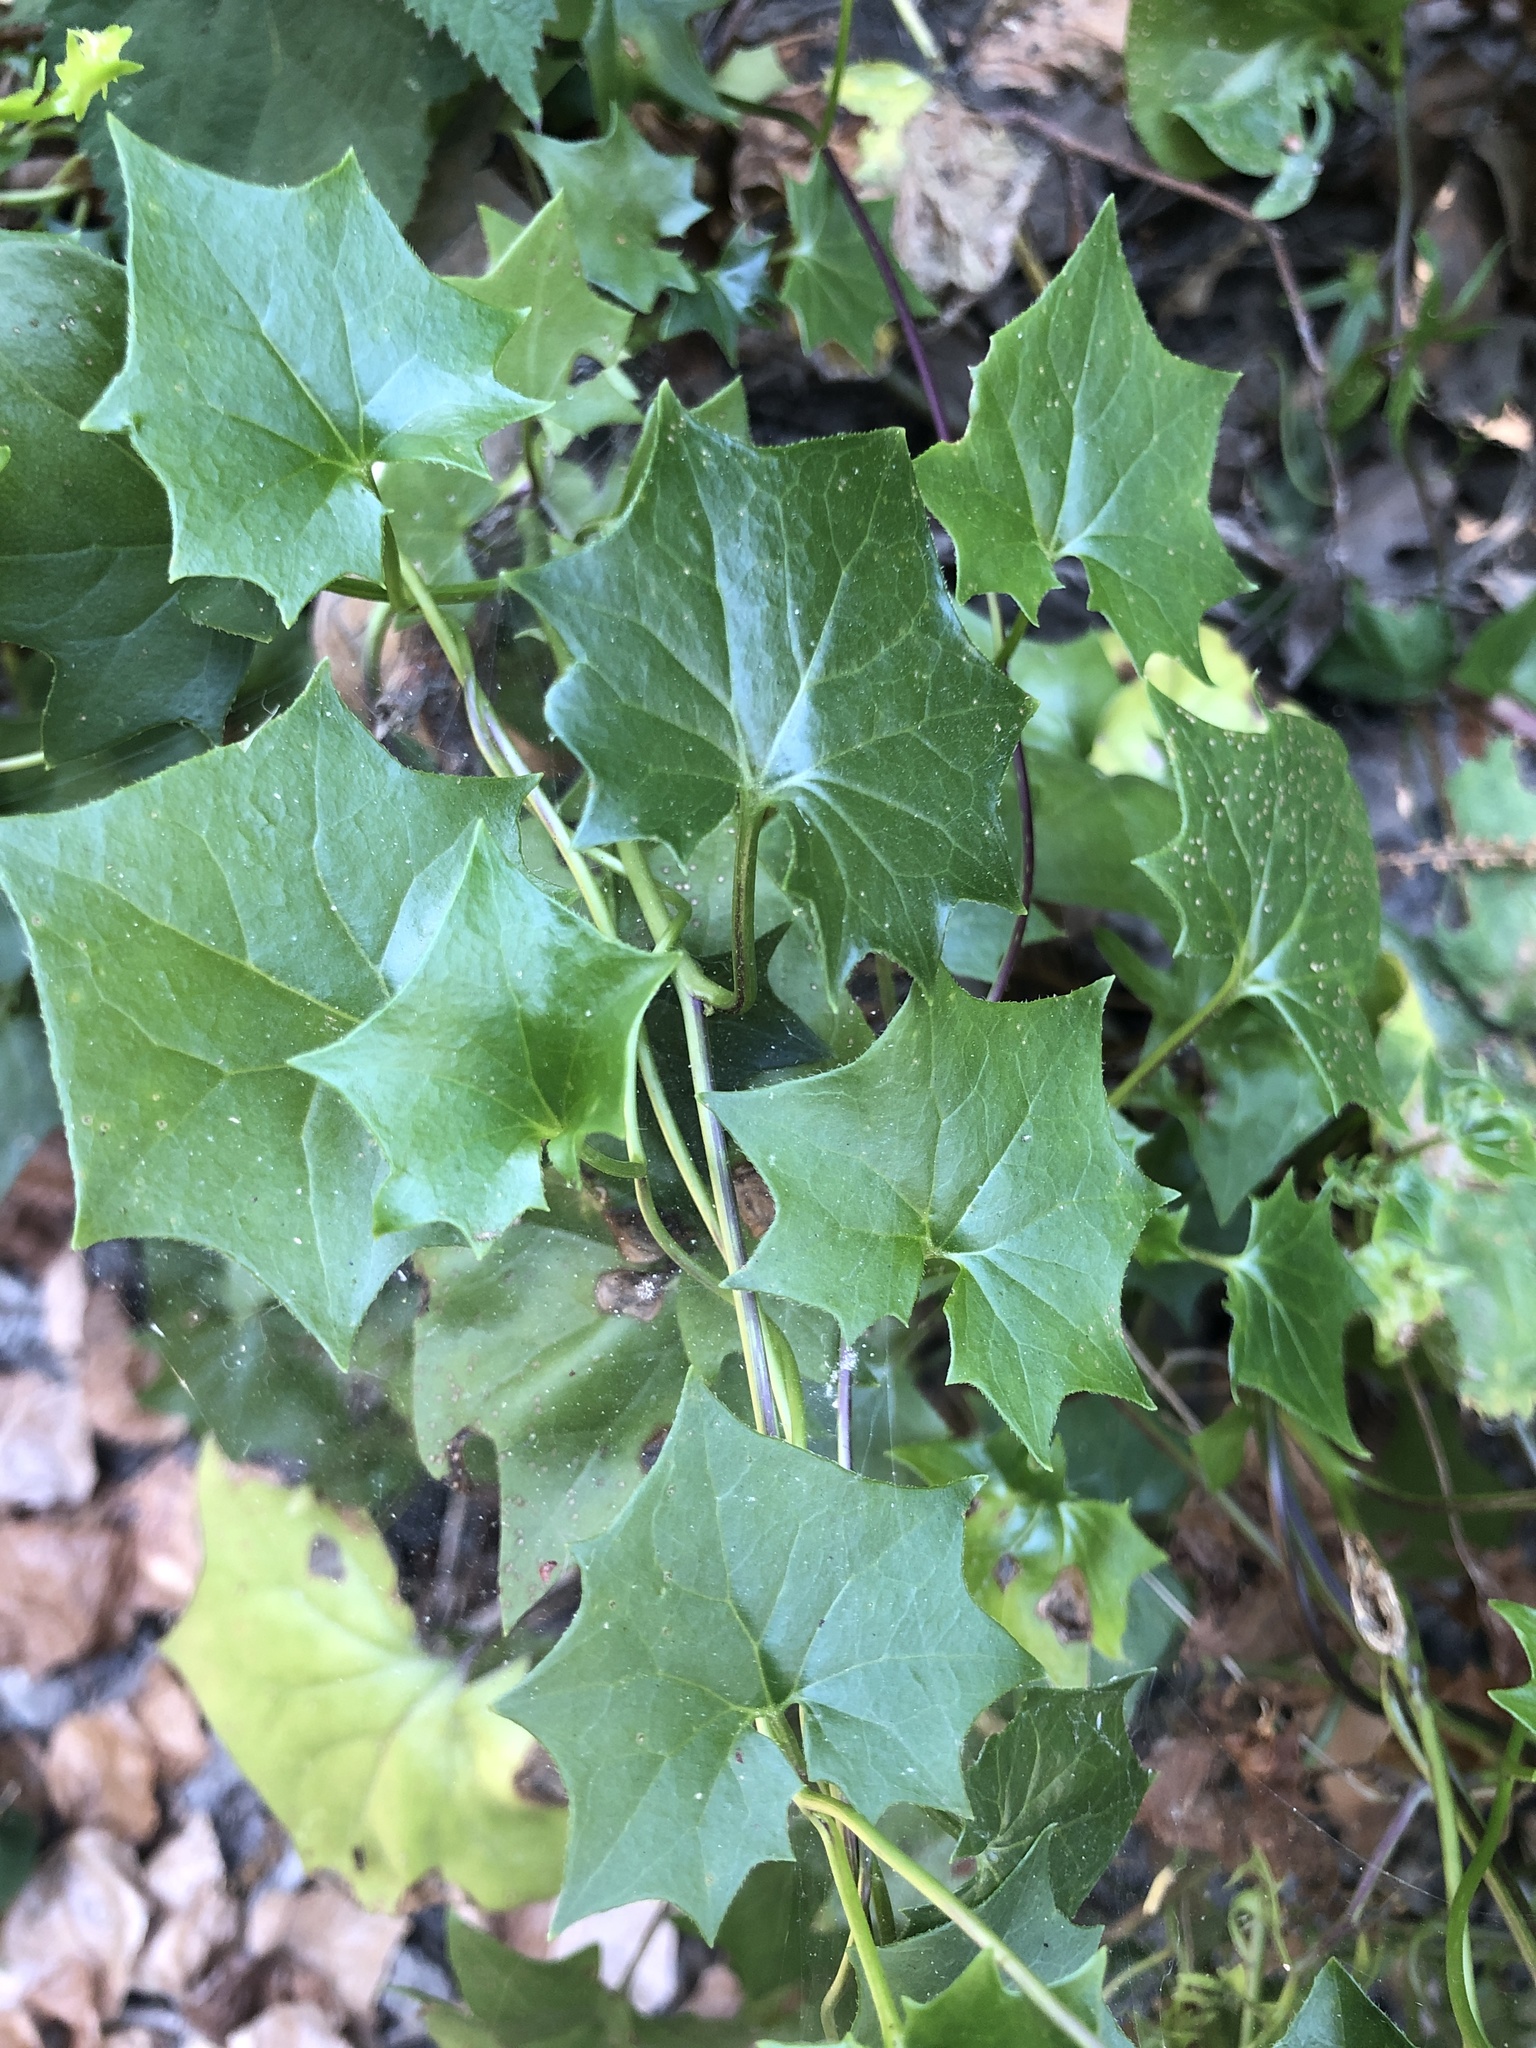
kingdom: Plantae
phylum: Tracheophyta
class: Magnoliopsida
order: Asterales
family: Asteraceae
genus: Delairea
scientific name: Delairea odorata
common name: Cape-ivy
